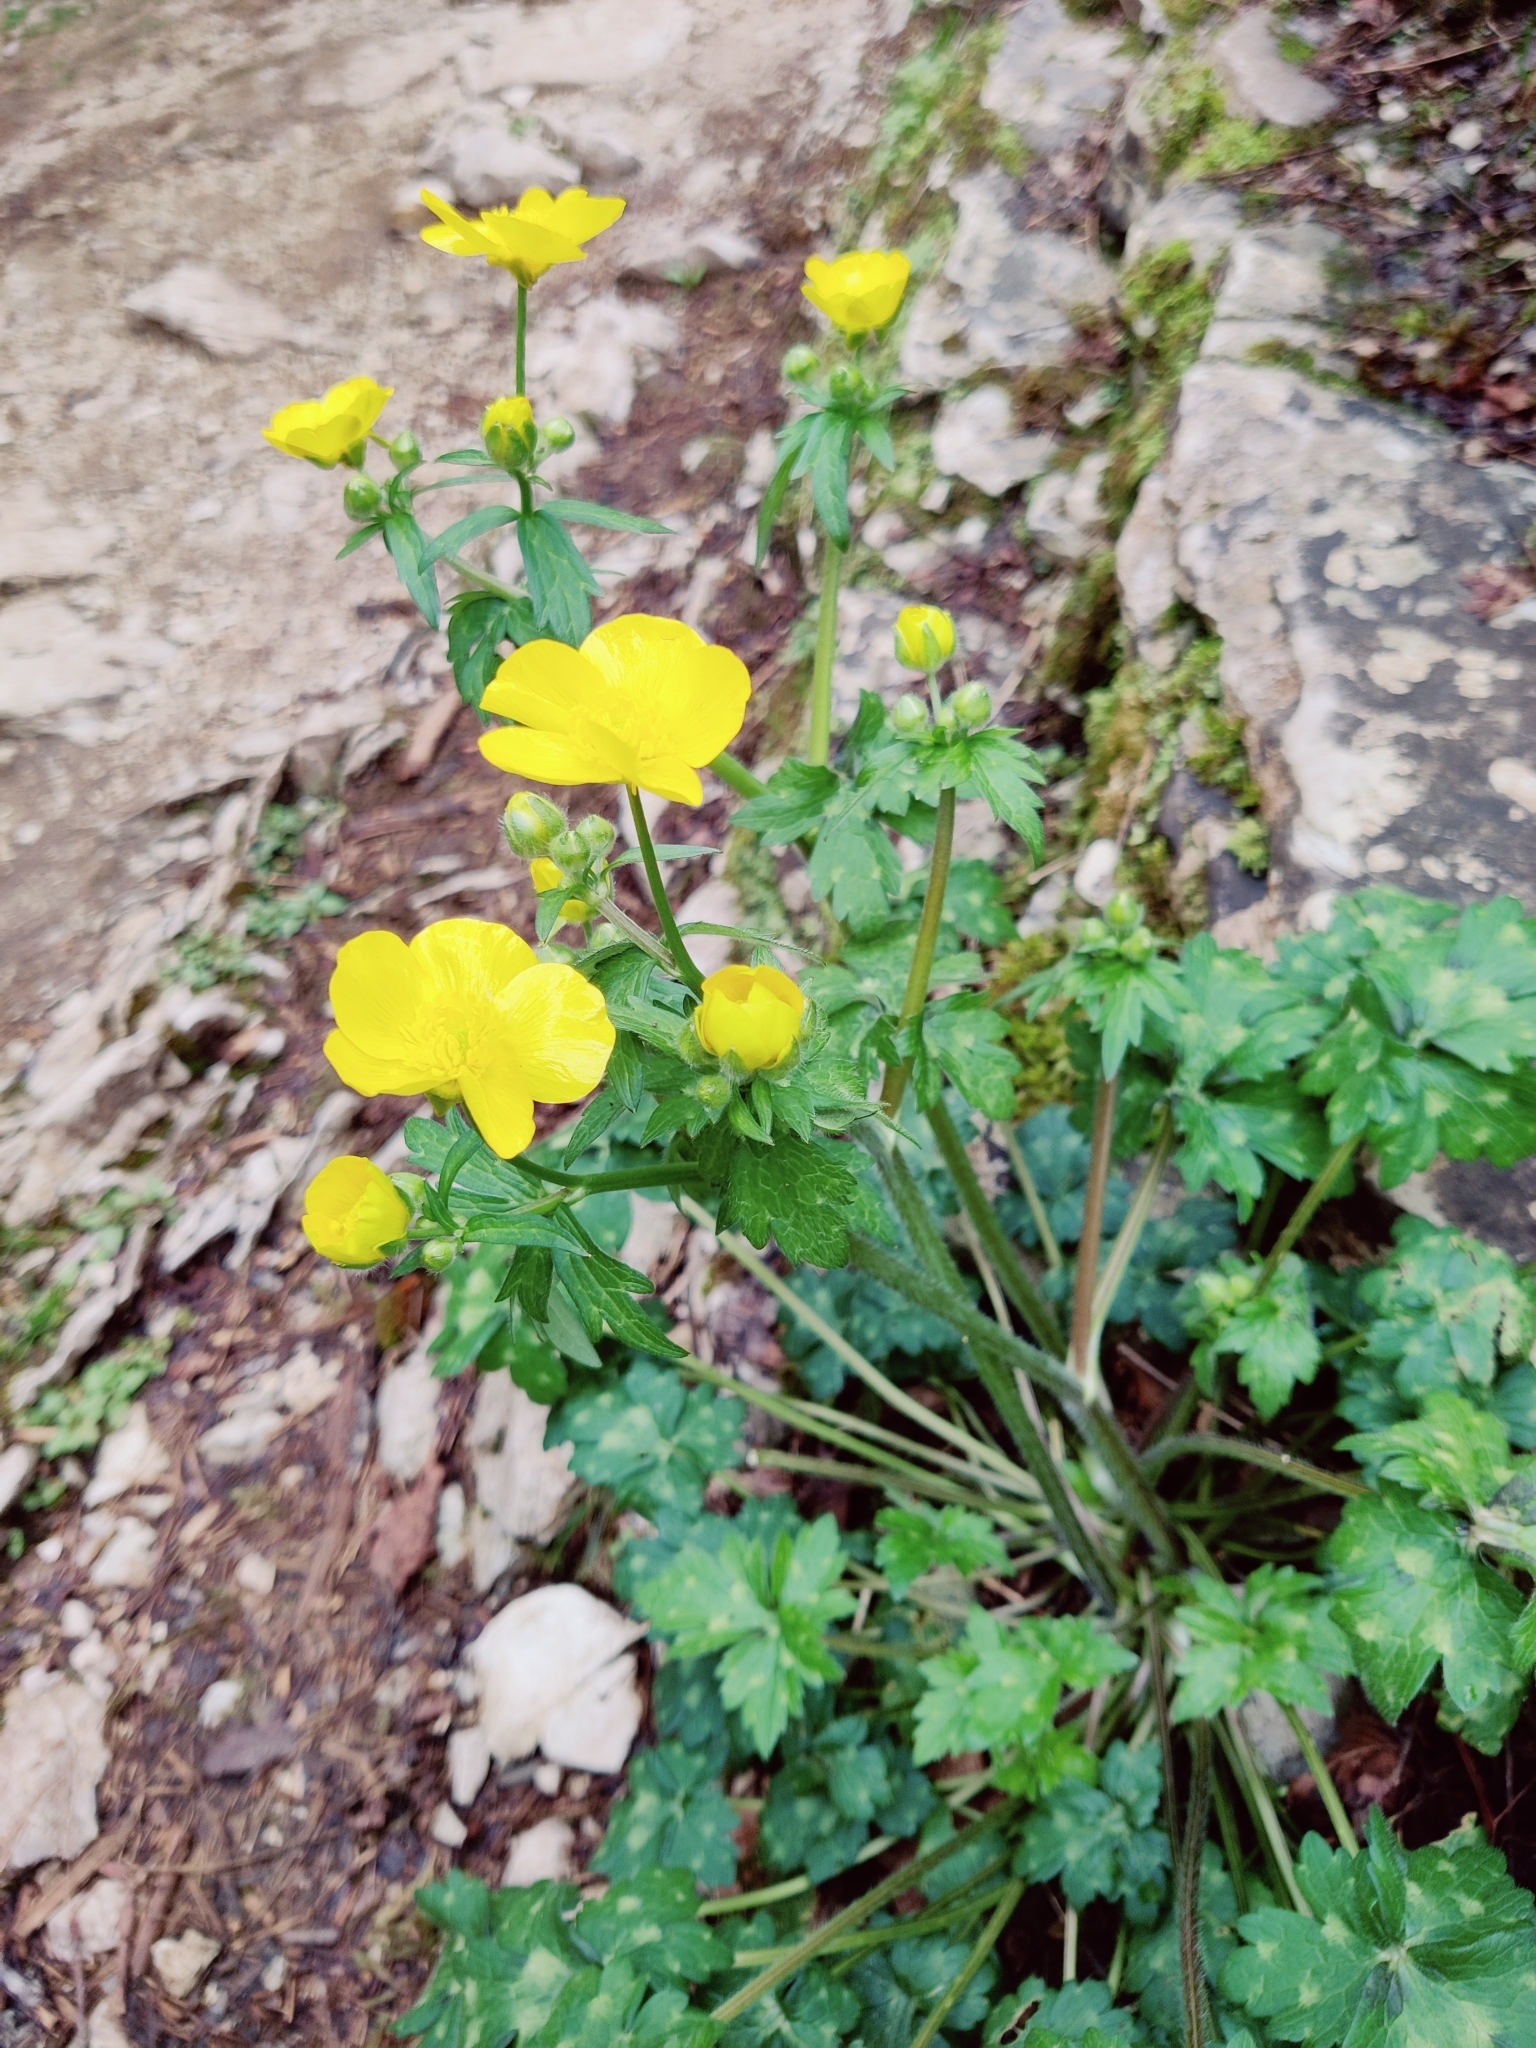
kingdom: Plantae
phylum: Tracheophyta
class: Magnoliopsida
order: Ranunculales
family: Ranunculaceae
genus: Ranunculus
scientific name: Ranunculus constantinopolitanus
